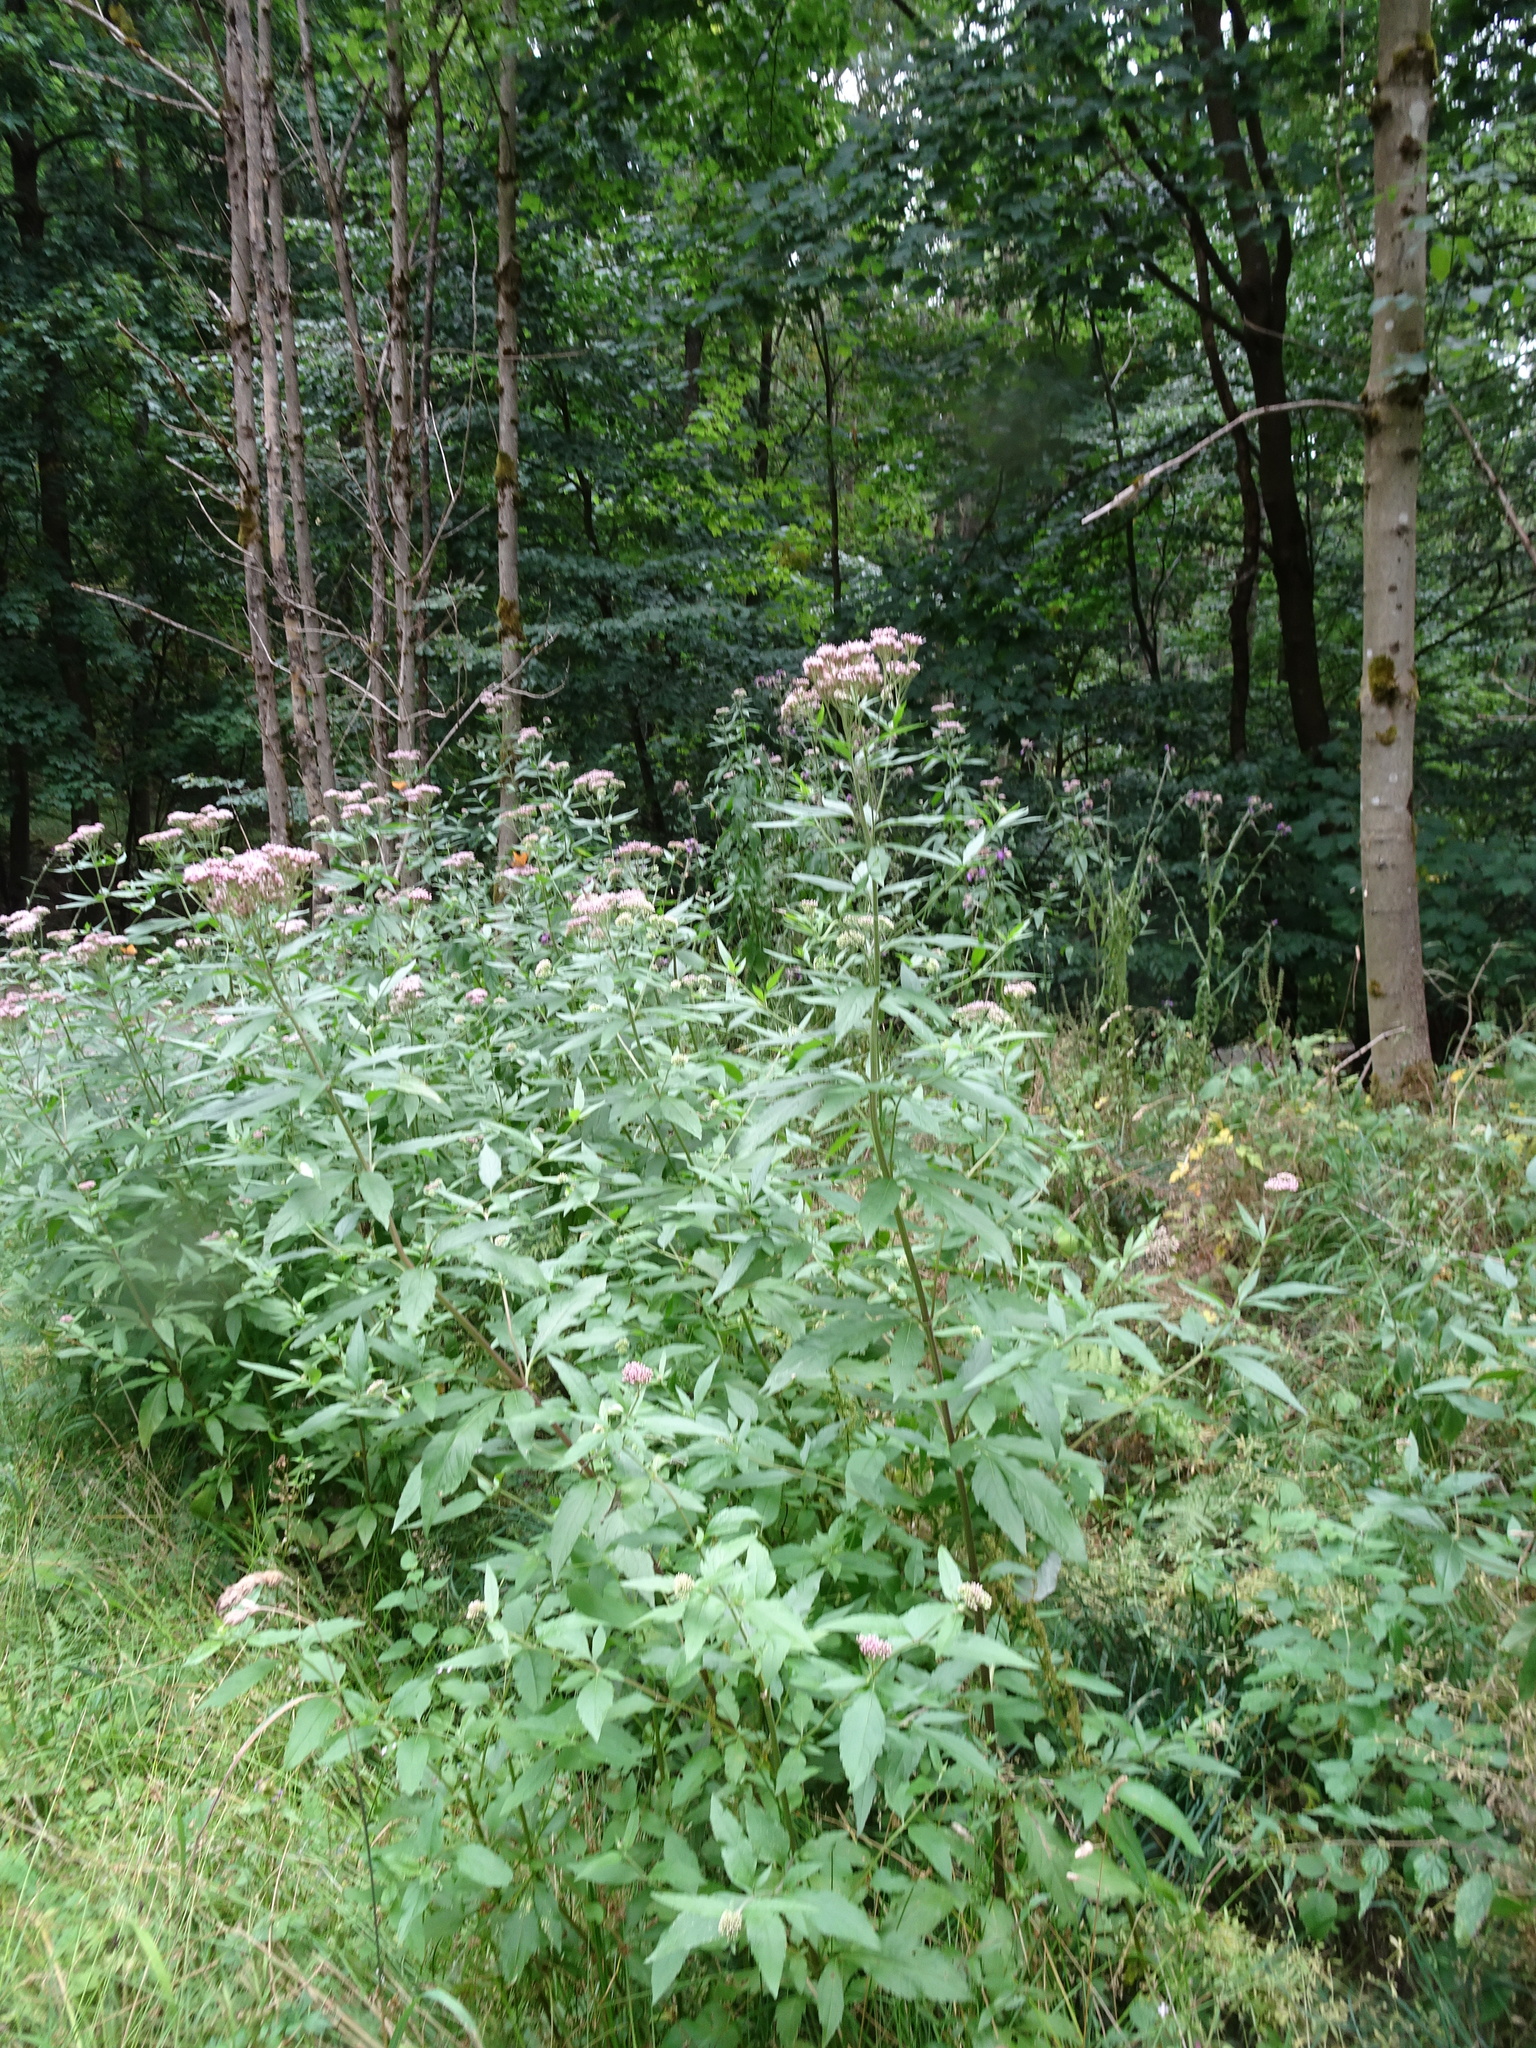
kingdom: Plantae
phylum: Tracheophyta
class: Magnoliopsida
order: Asterales
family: Asteraceae
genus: Eupatorium
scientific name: Eupatorium cannabinum
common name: Hemp-agrimony
